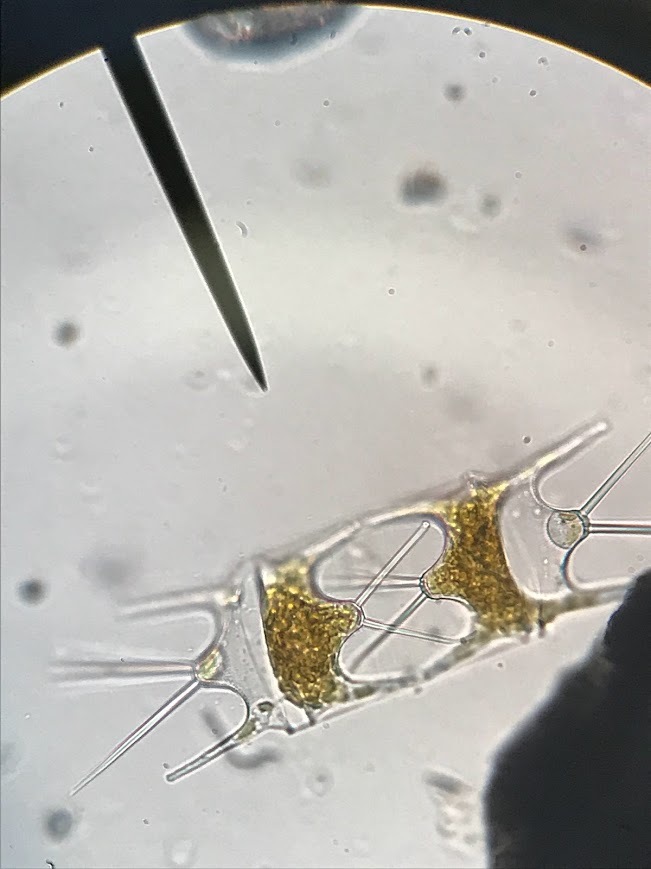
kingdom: Chromista
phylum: Ochrophyta
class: Bacillariophyceae
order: Triceratiales
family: Triceratiaceae
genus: Hobaniella
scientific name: Hobaniella longicruris
